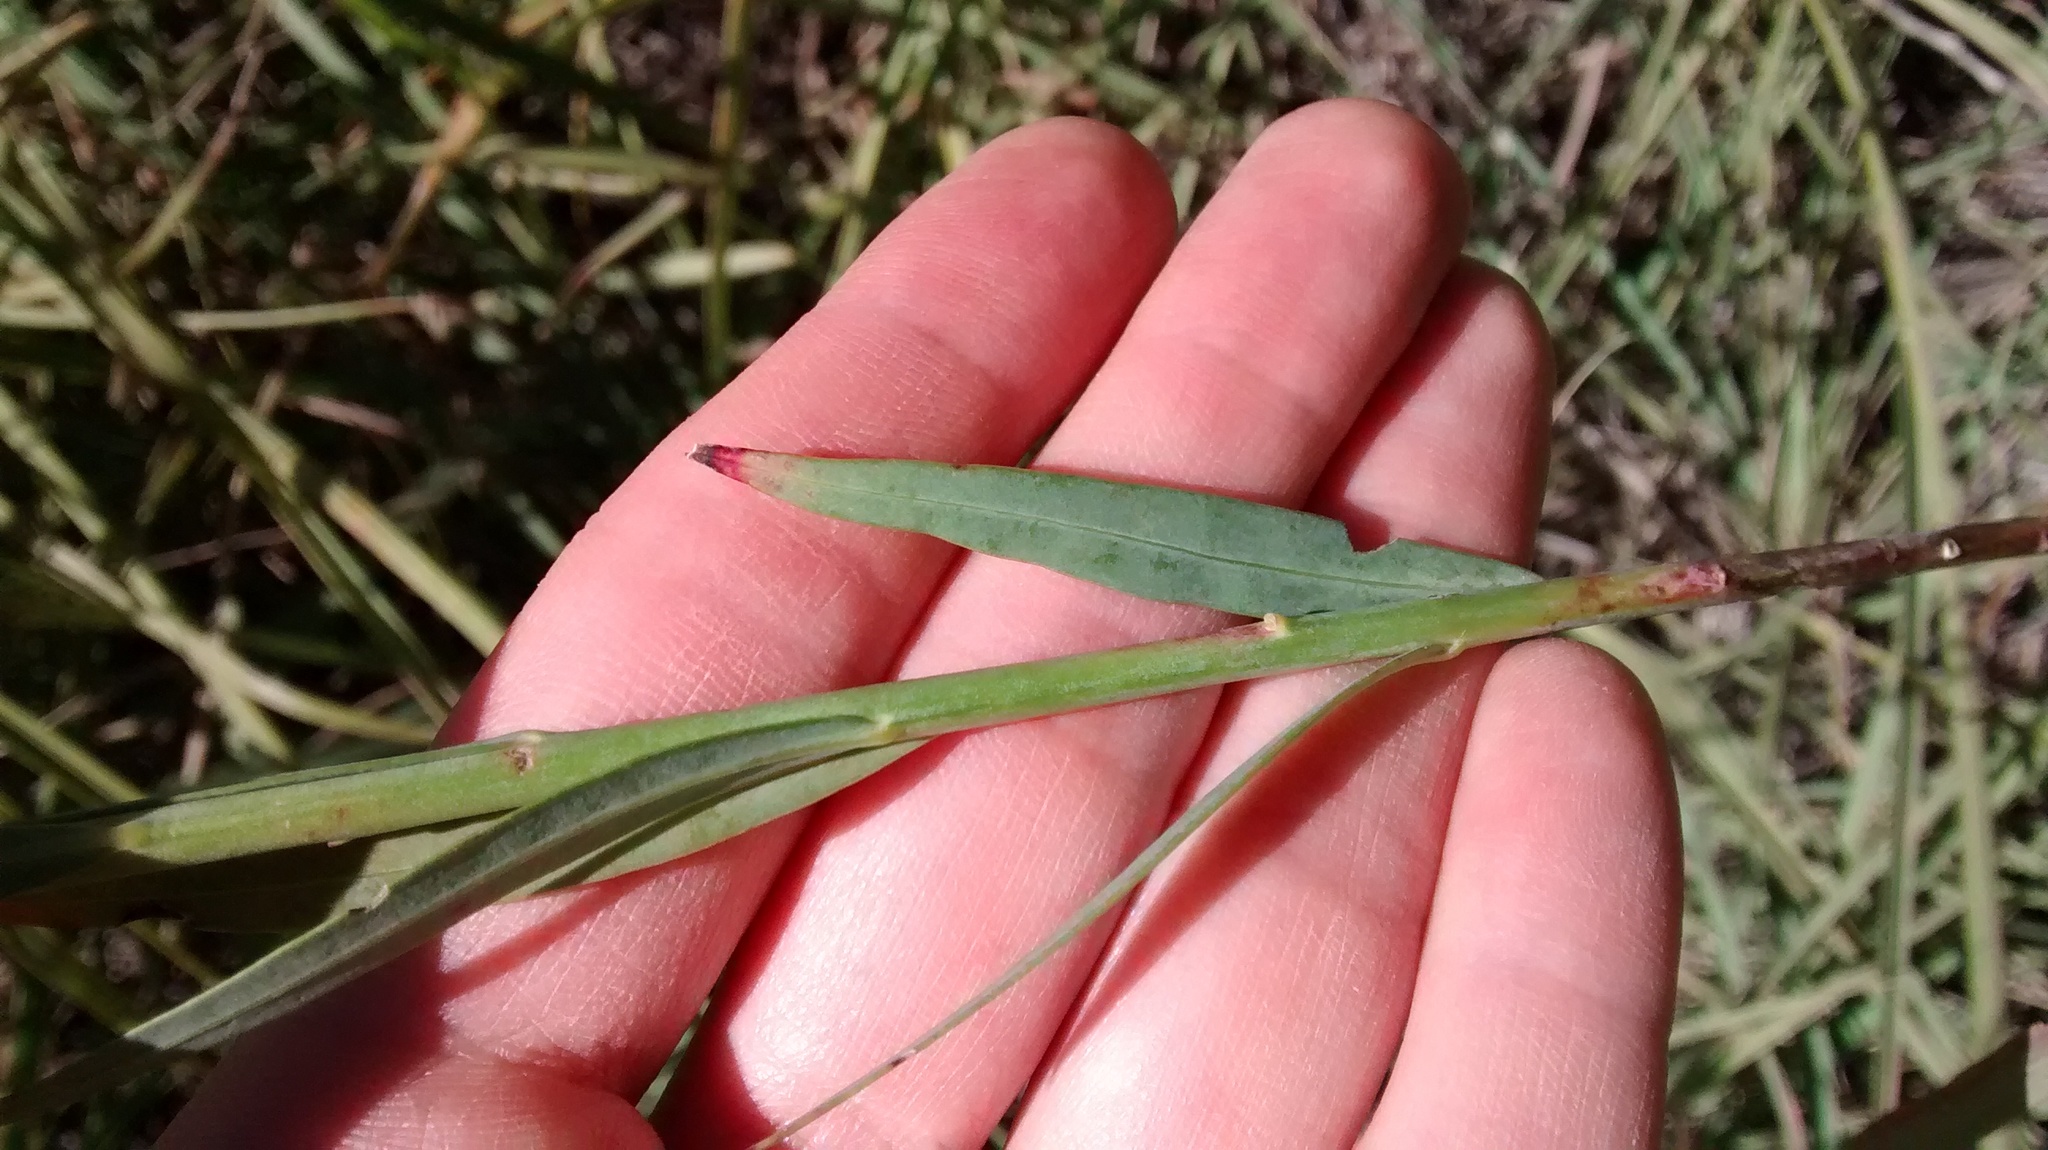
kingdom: Plantae
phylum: Tracheophyta
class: Magnoliopsida
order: Myrtales
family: Onagraceae
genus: Oenothera
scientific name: Oenothera glaucifolia
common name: False gaura
